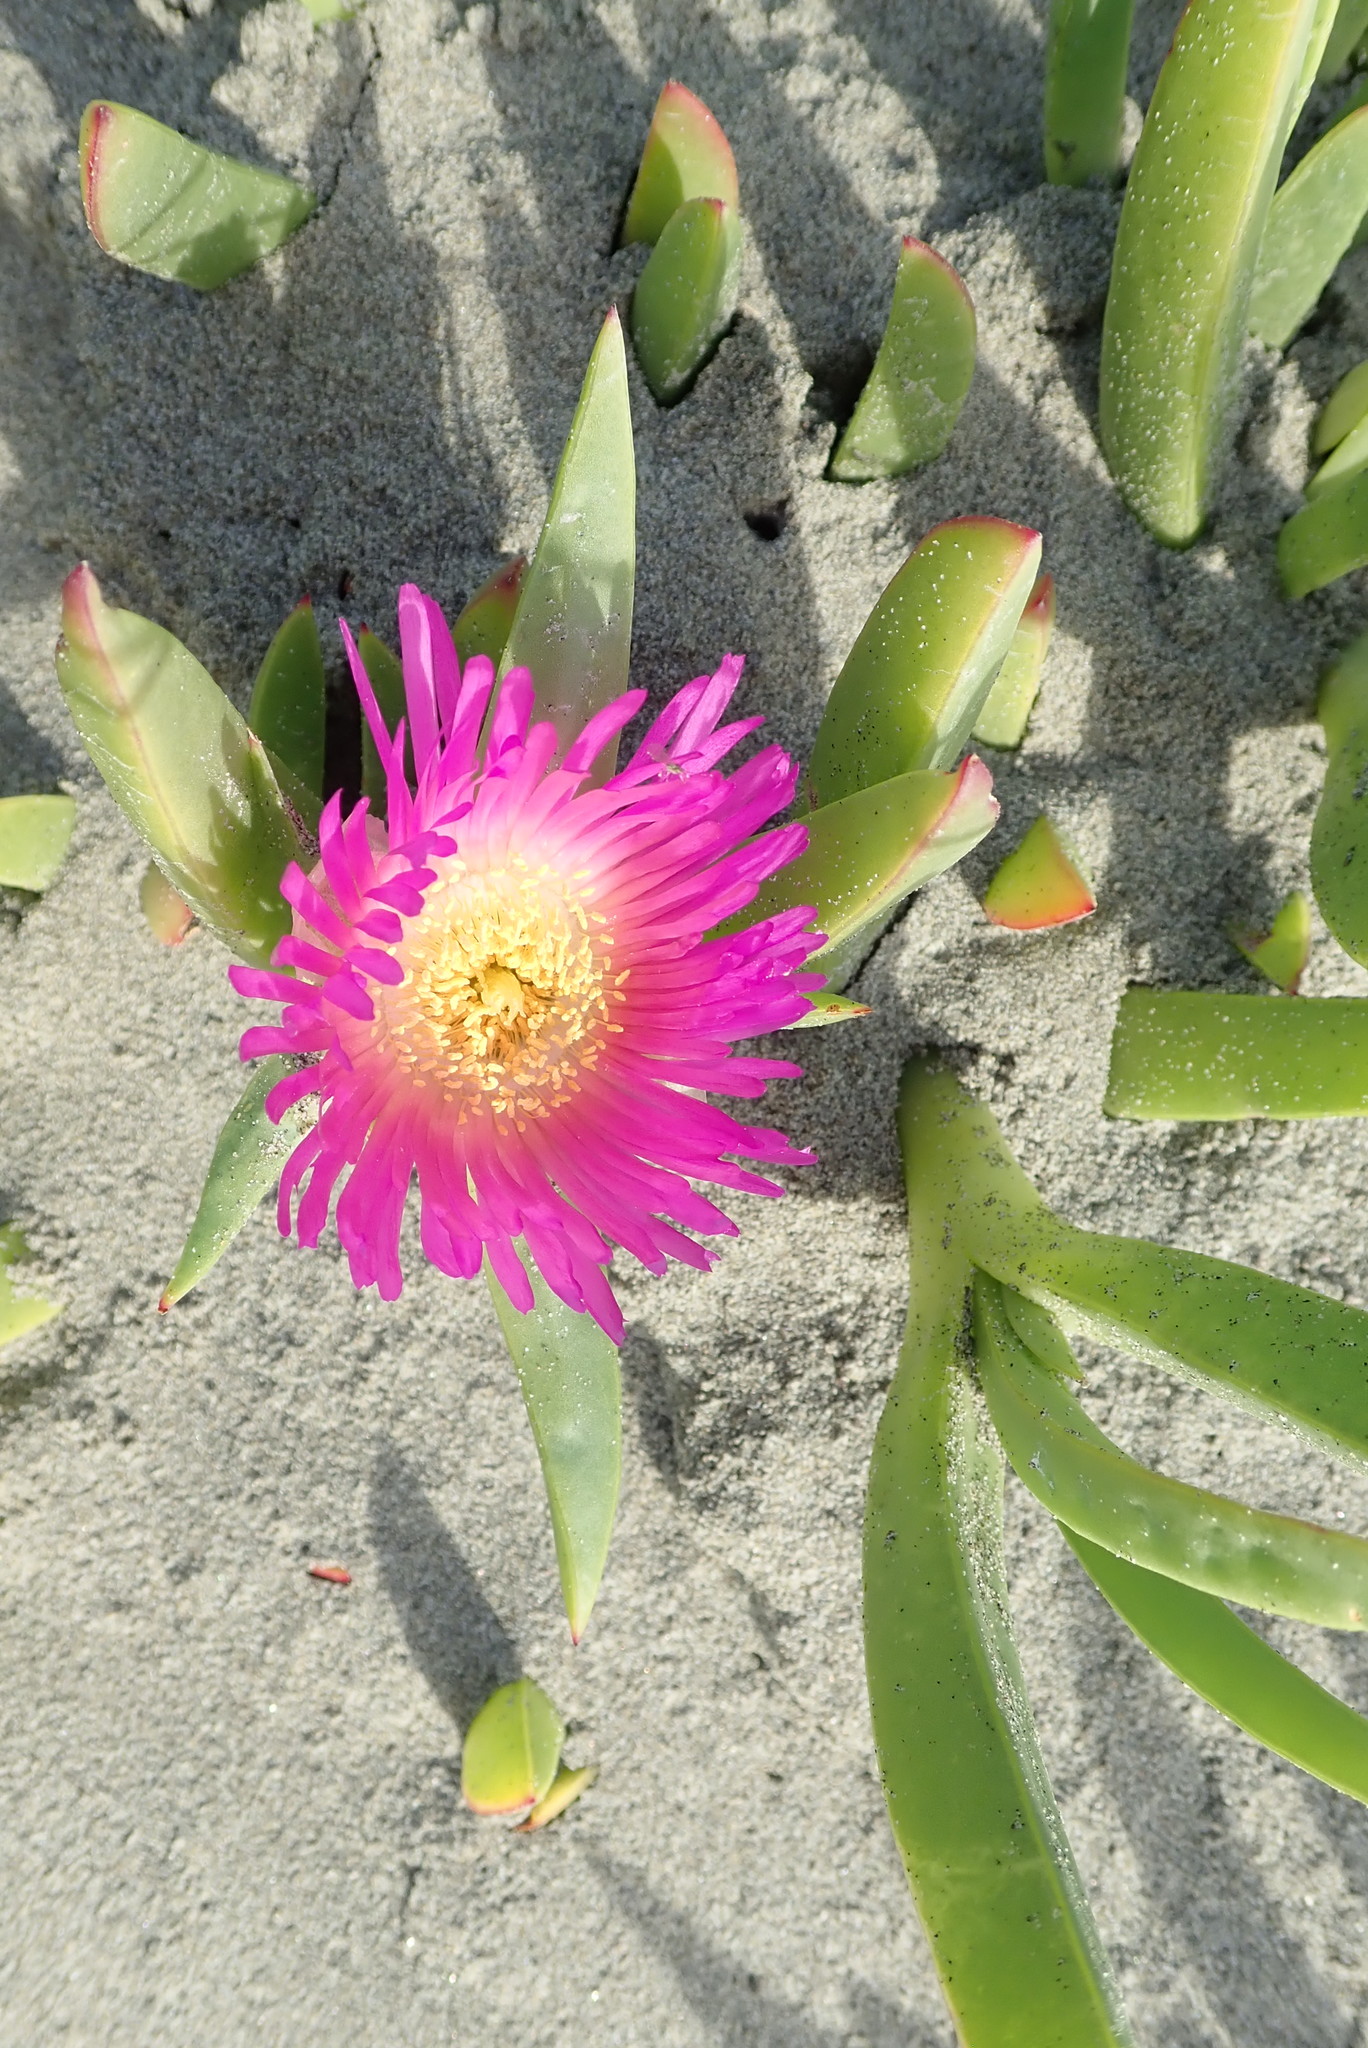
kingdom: Plantae
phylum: Tracheophyta
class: Magnoliopsida
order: Caryophyllales
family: Aizoaceae
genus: Carpobrotus
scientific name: Carpobrotus chilensis
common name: Sea fig
